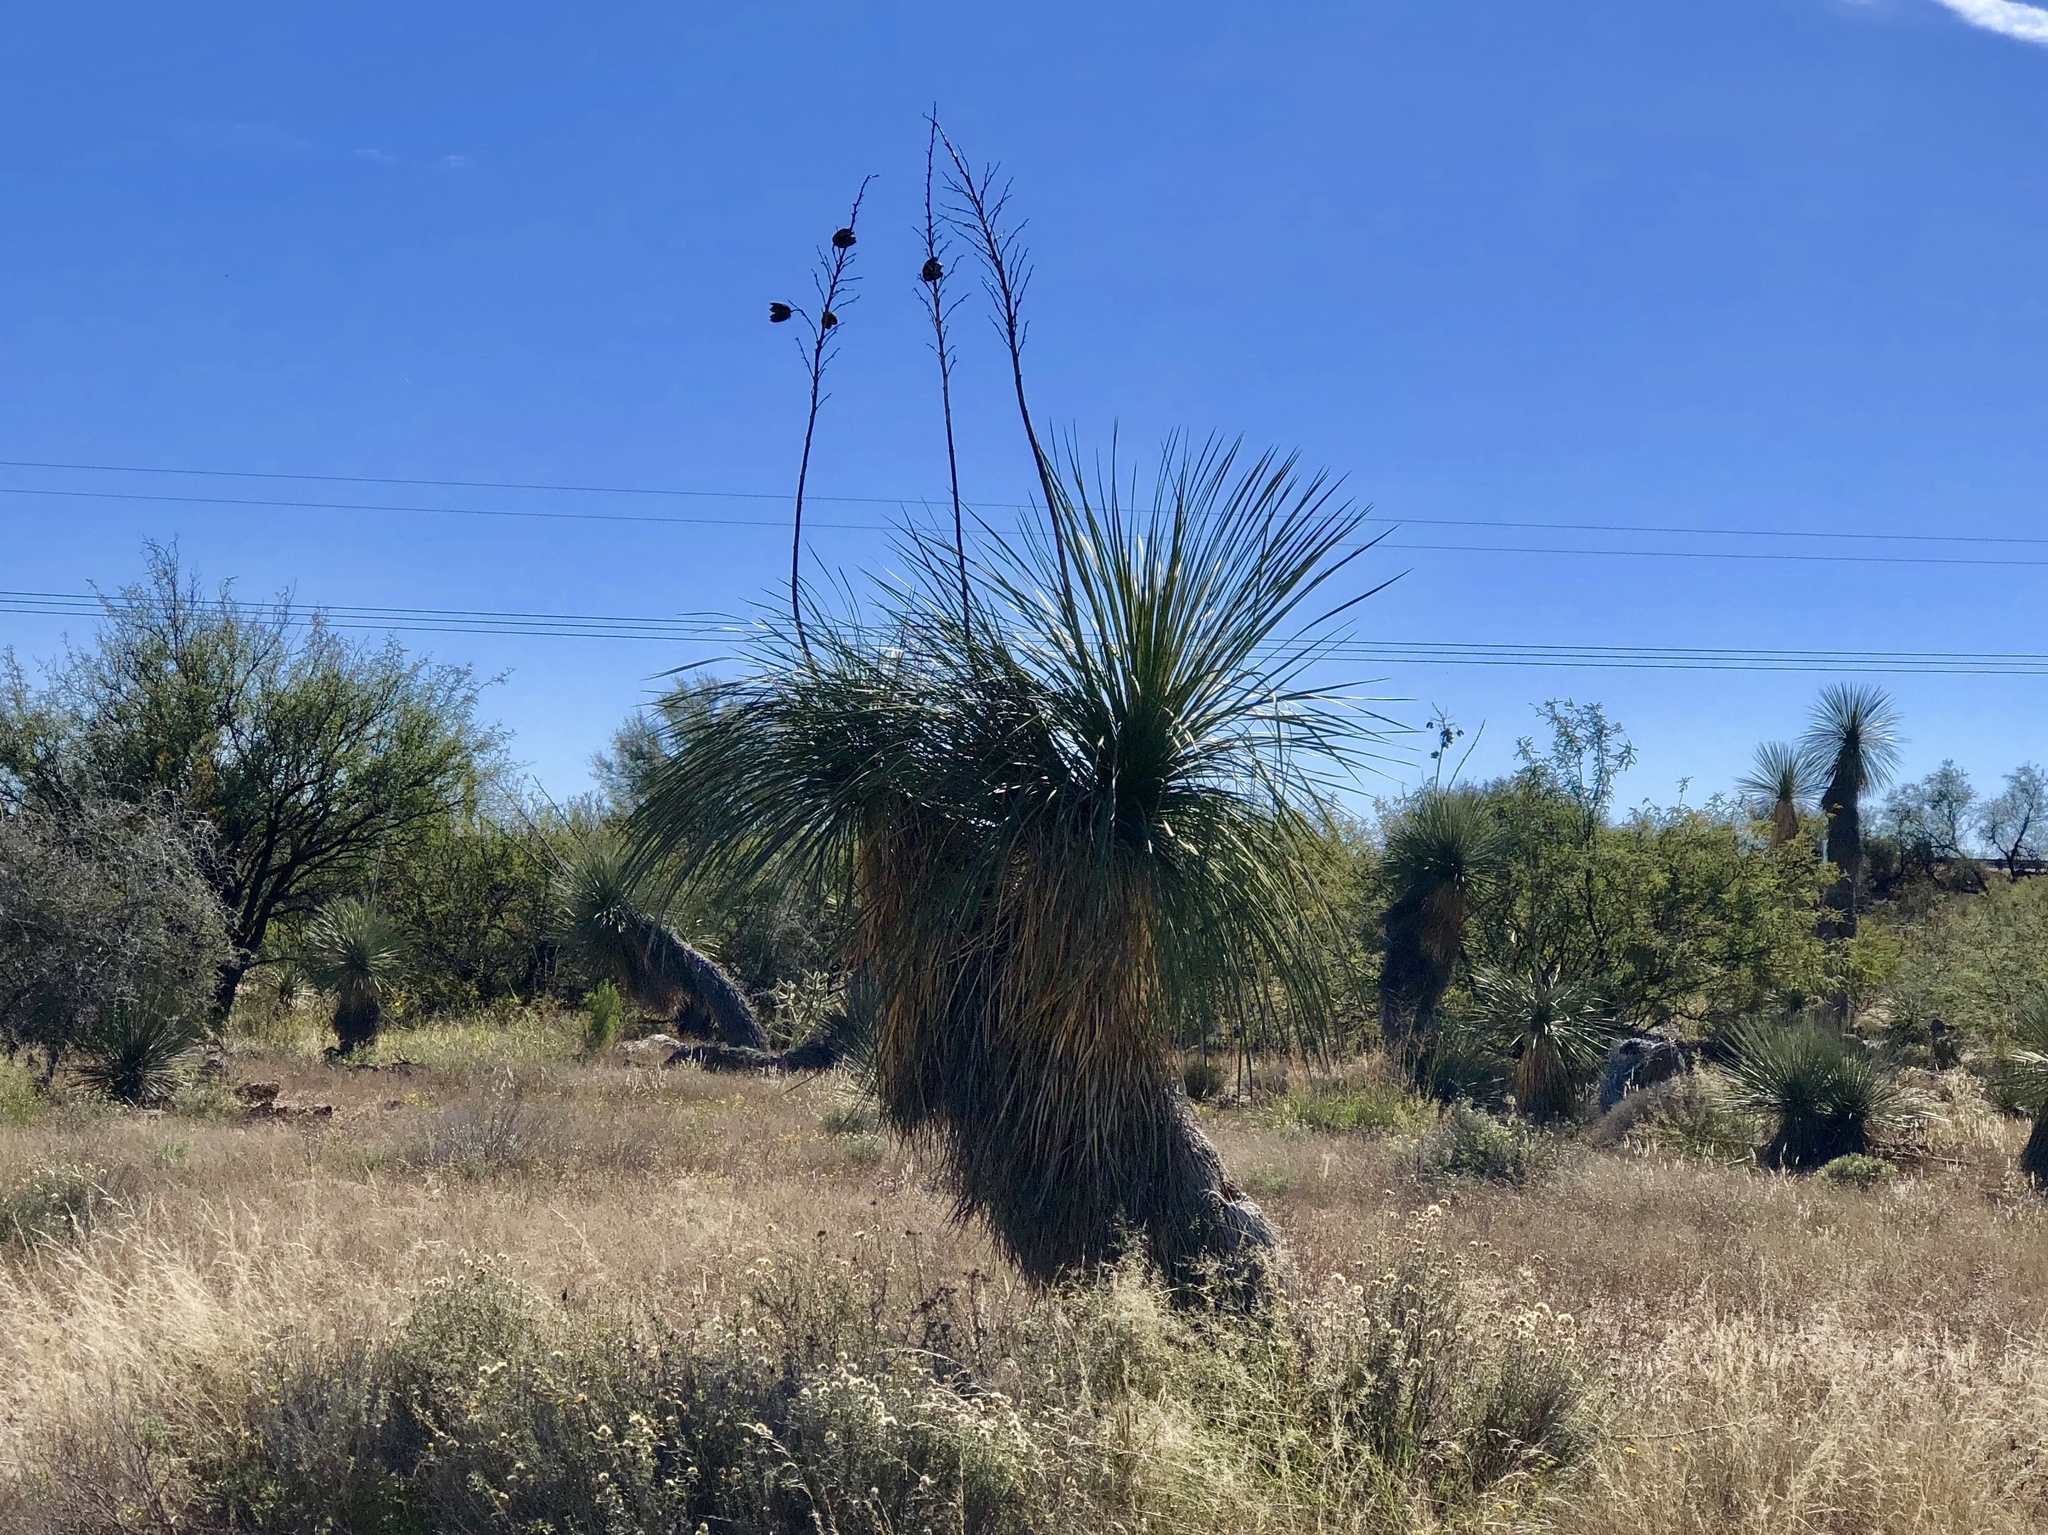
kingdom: Plantae
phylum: Tracheophyta
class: Liliopsida
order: Asparagales
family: Asparagaceae
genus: Yucca
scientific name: Yucca elata
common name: Palmella
